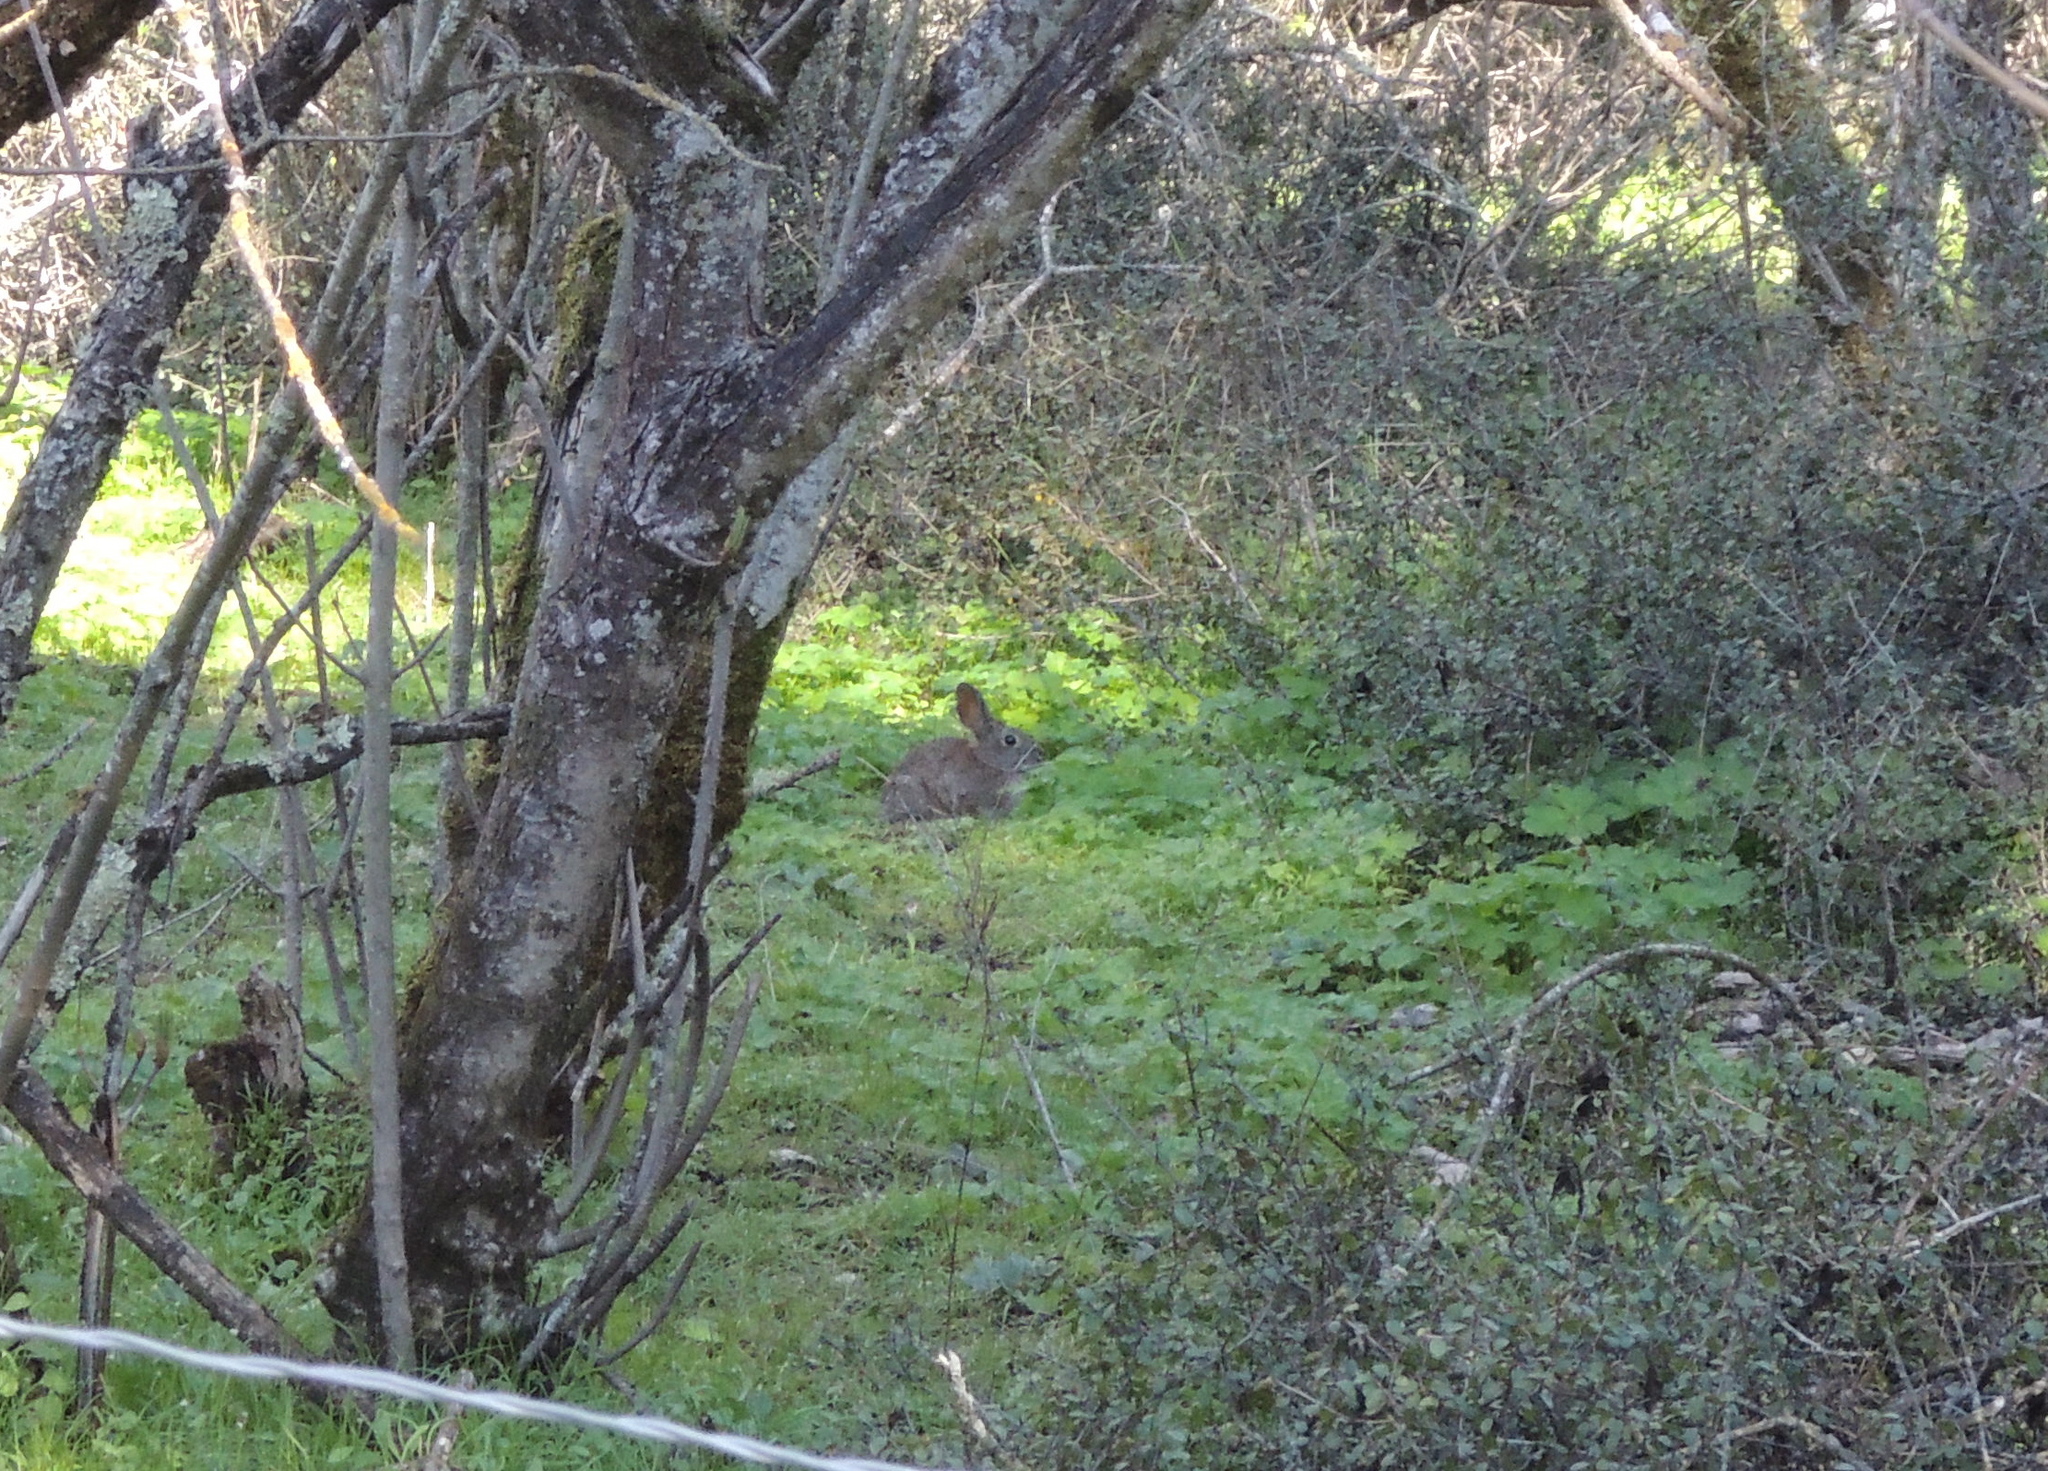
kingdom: Animalia
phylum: Chordata
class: Mammalia
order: Lagomorpha
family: Leporidae
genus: Sylvilagus
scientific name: Sylvilagus bachmani
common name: Brush rabbit
